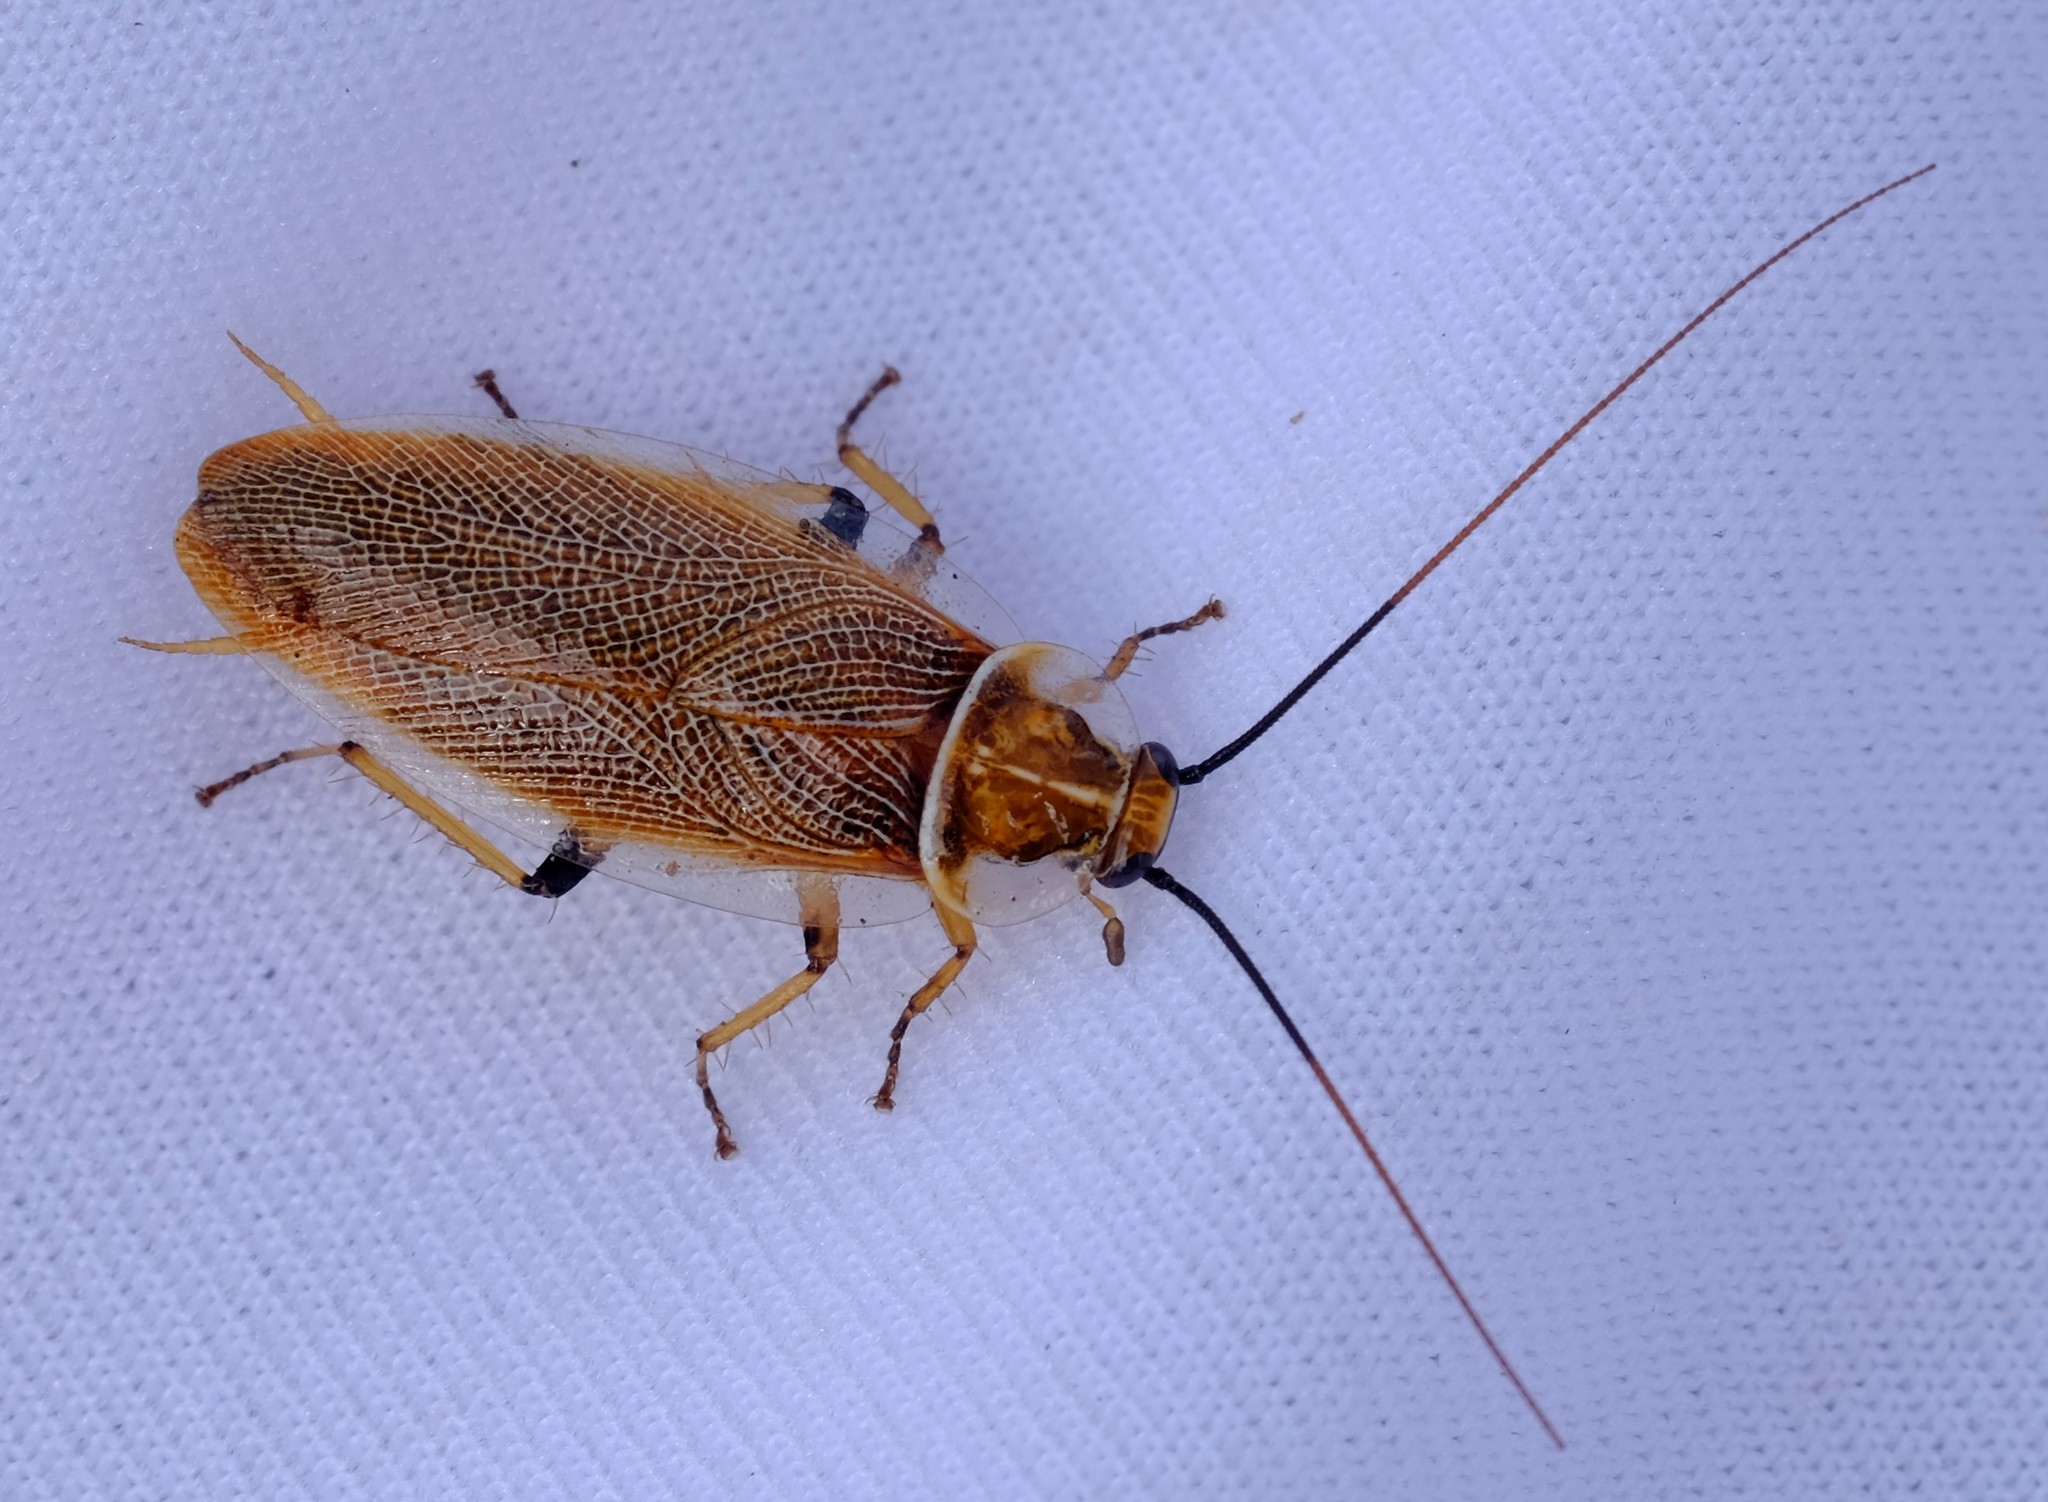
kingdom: Animalia
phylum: Arthropoda
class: Insecta
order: Blattodea
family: Ectobiidae
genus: Balta
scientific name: Balta bicolor
